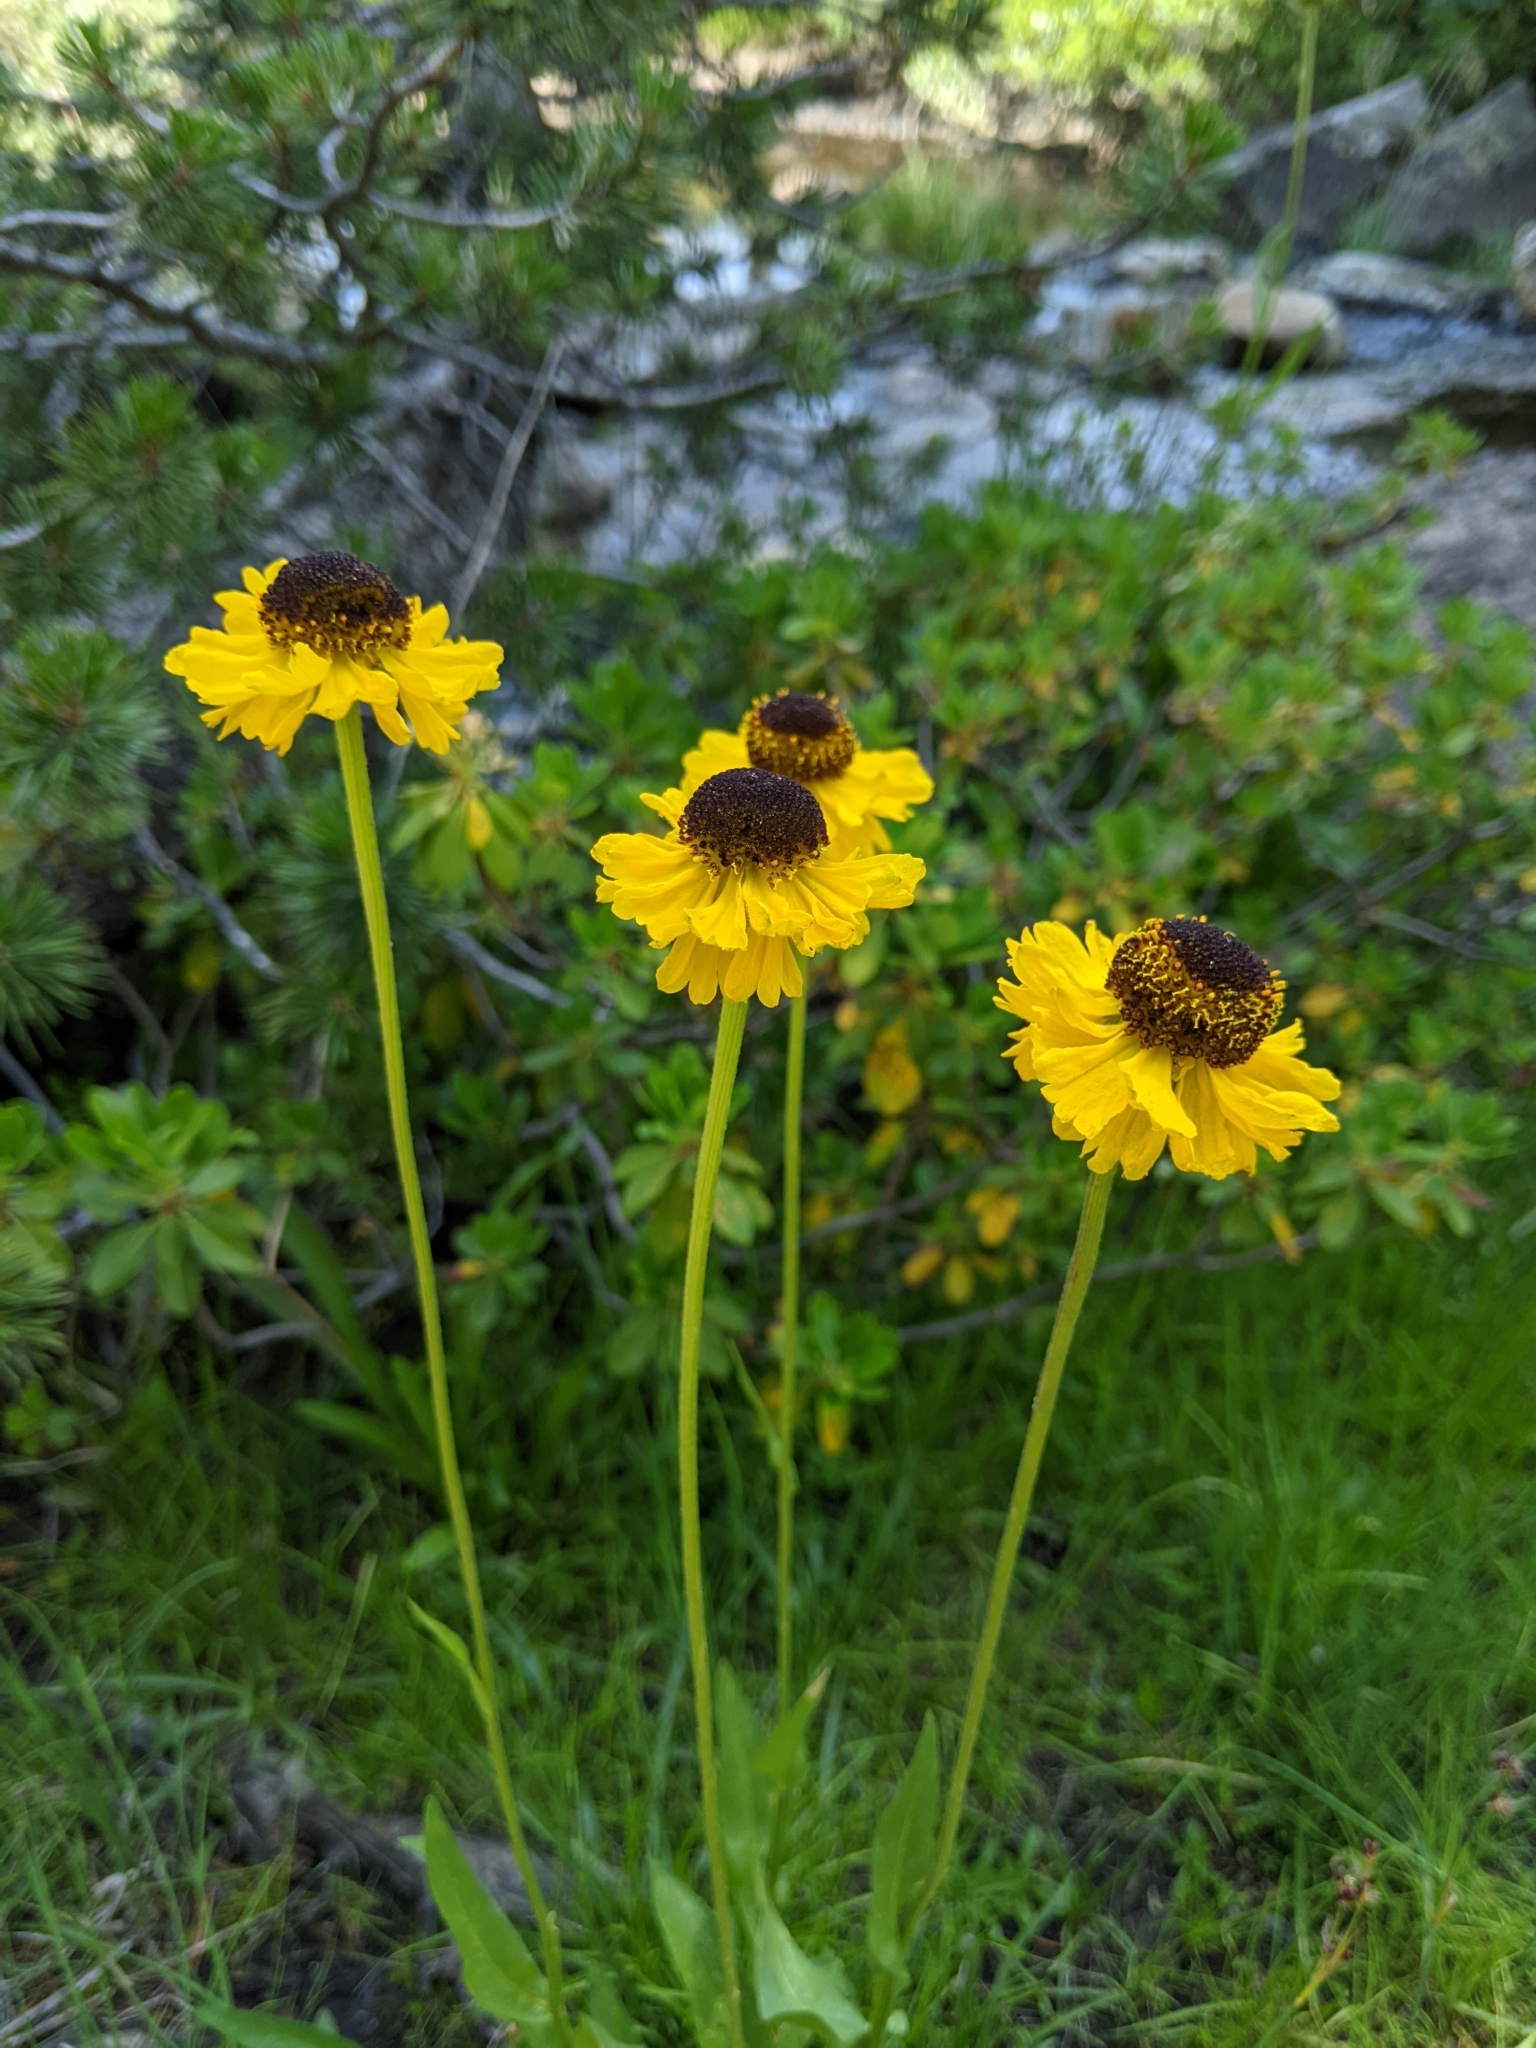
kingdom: Plantae
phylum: Tracheophyta
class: Magnoliopsida
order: Asterales
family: Asteraceae
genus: Helenium
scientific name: Helenium bigelovii
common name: Bigelow's sneezeweed
